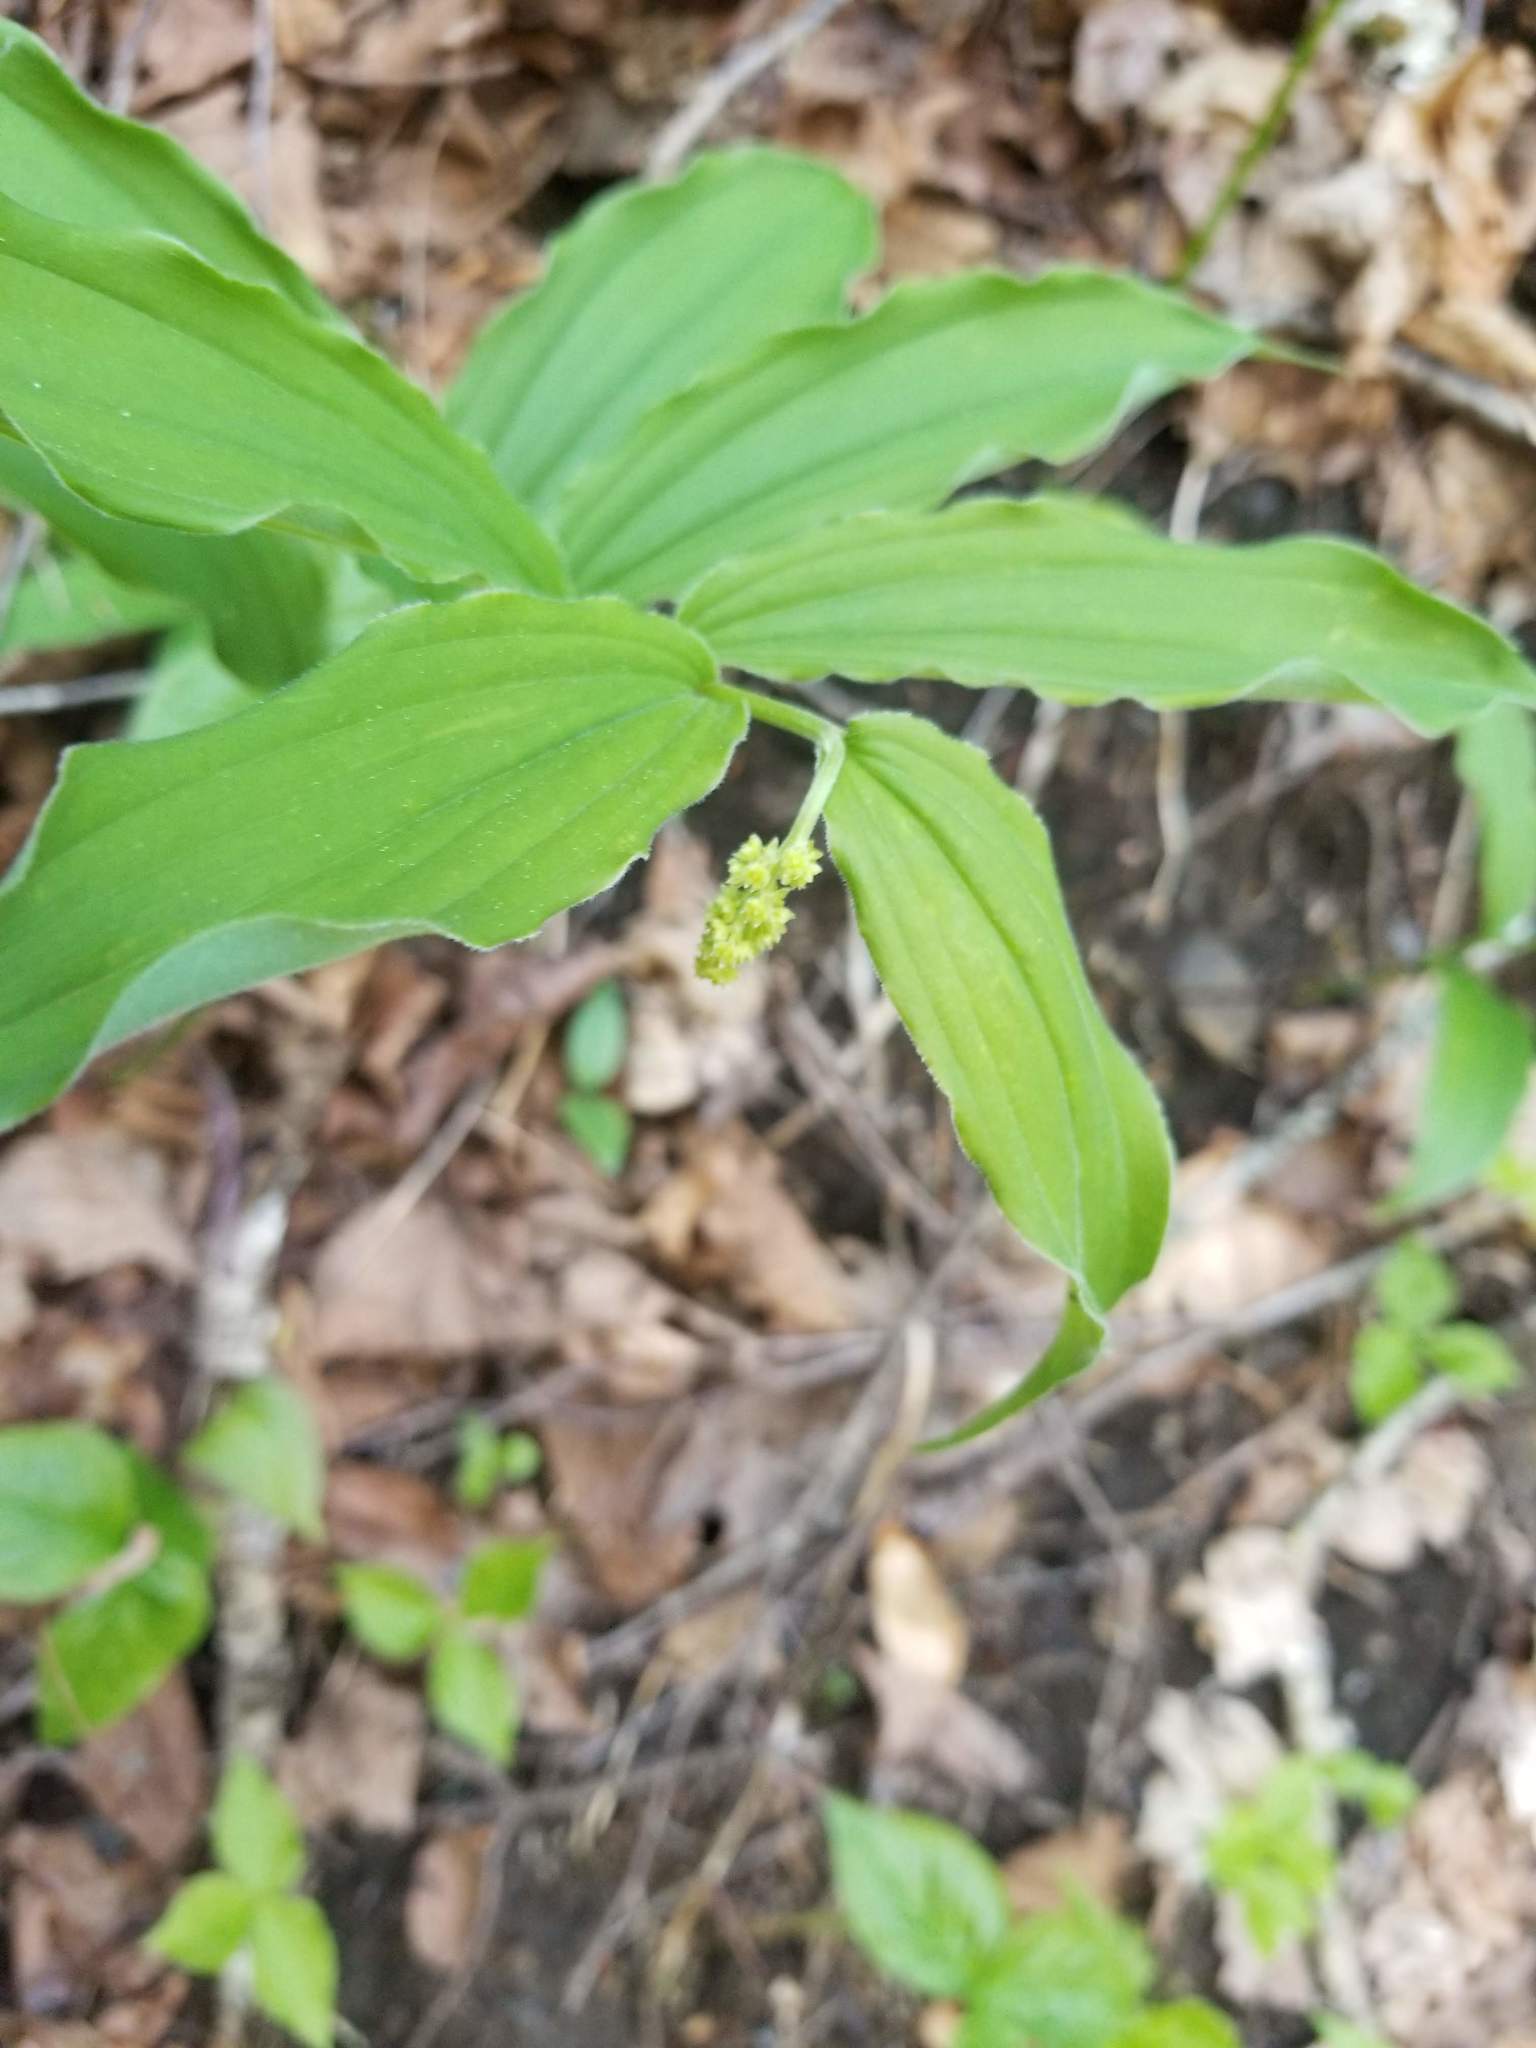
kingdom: Plantae
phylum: Tracheophyta
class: Liliopsida
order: Asparagales
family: Asparagaceae
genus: Maianthemum
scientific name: Maianthemum racemosum
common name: False spikenard
